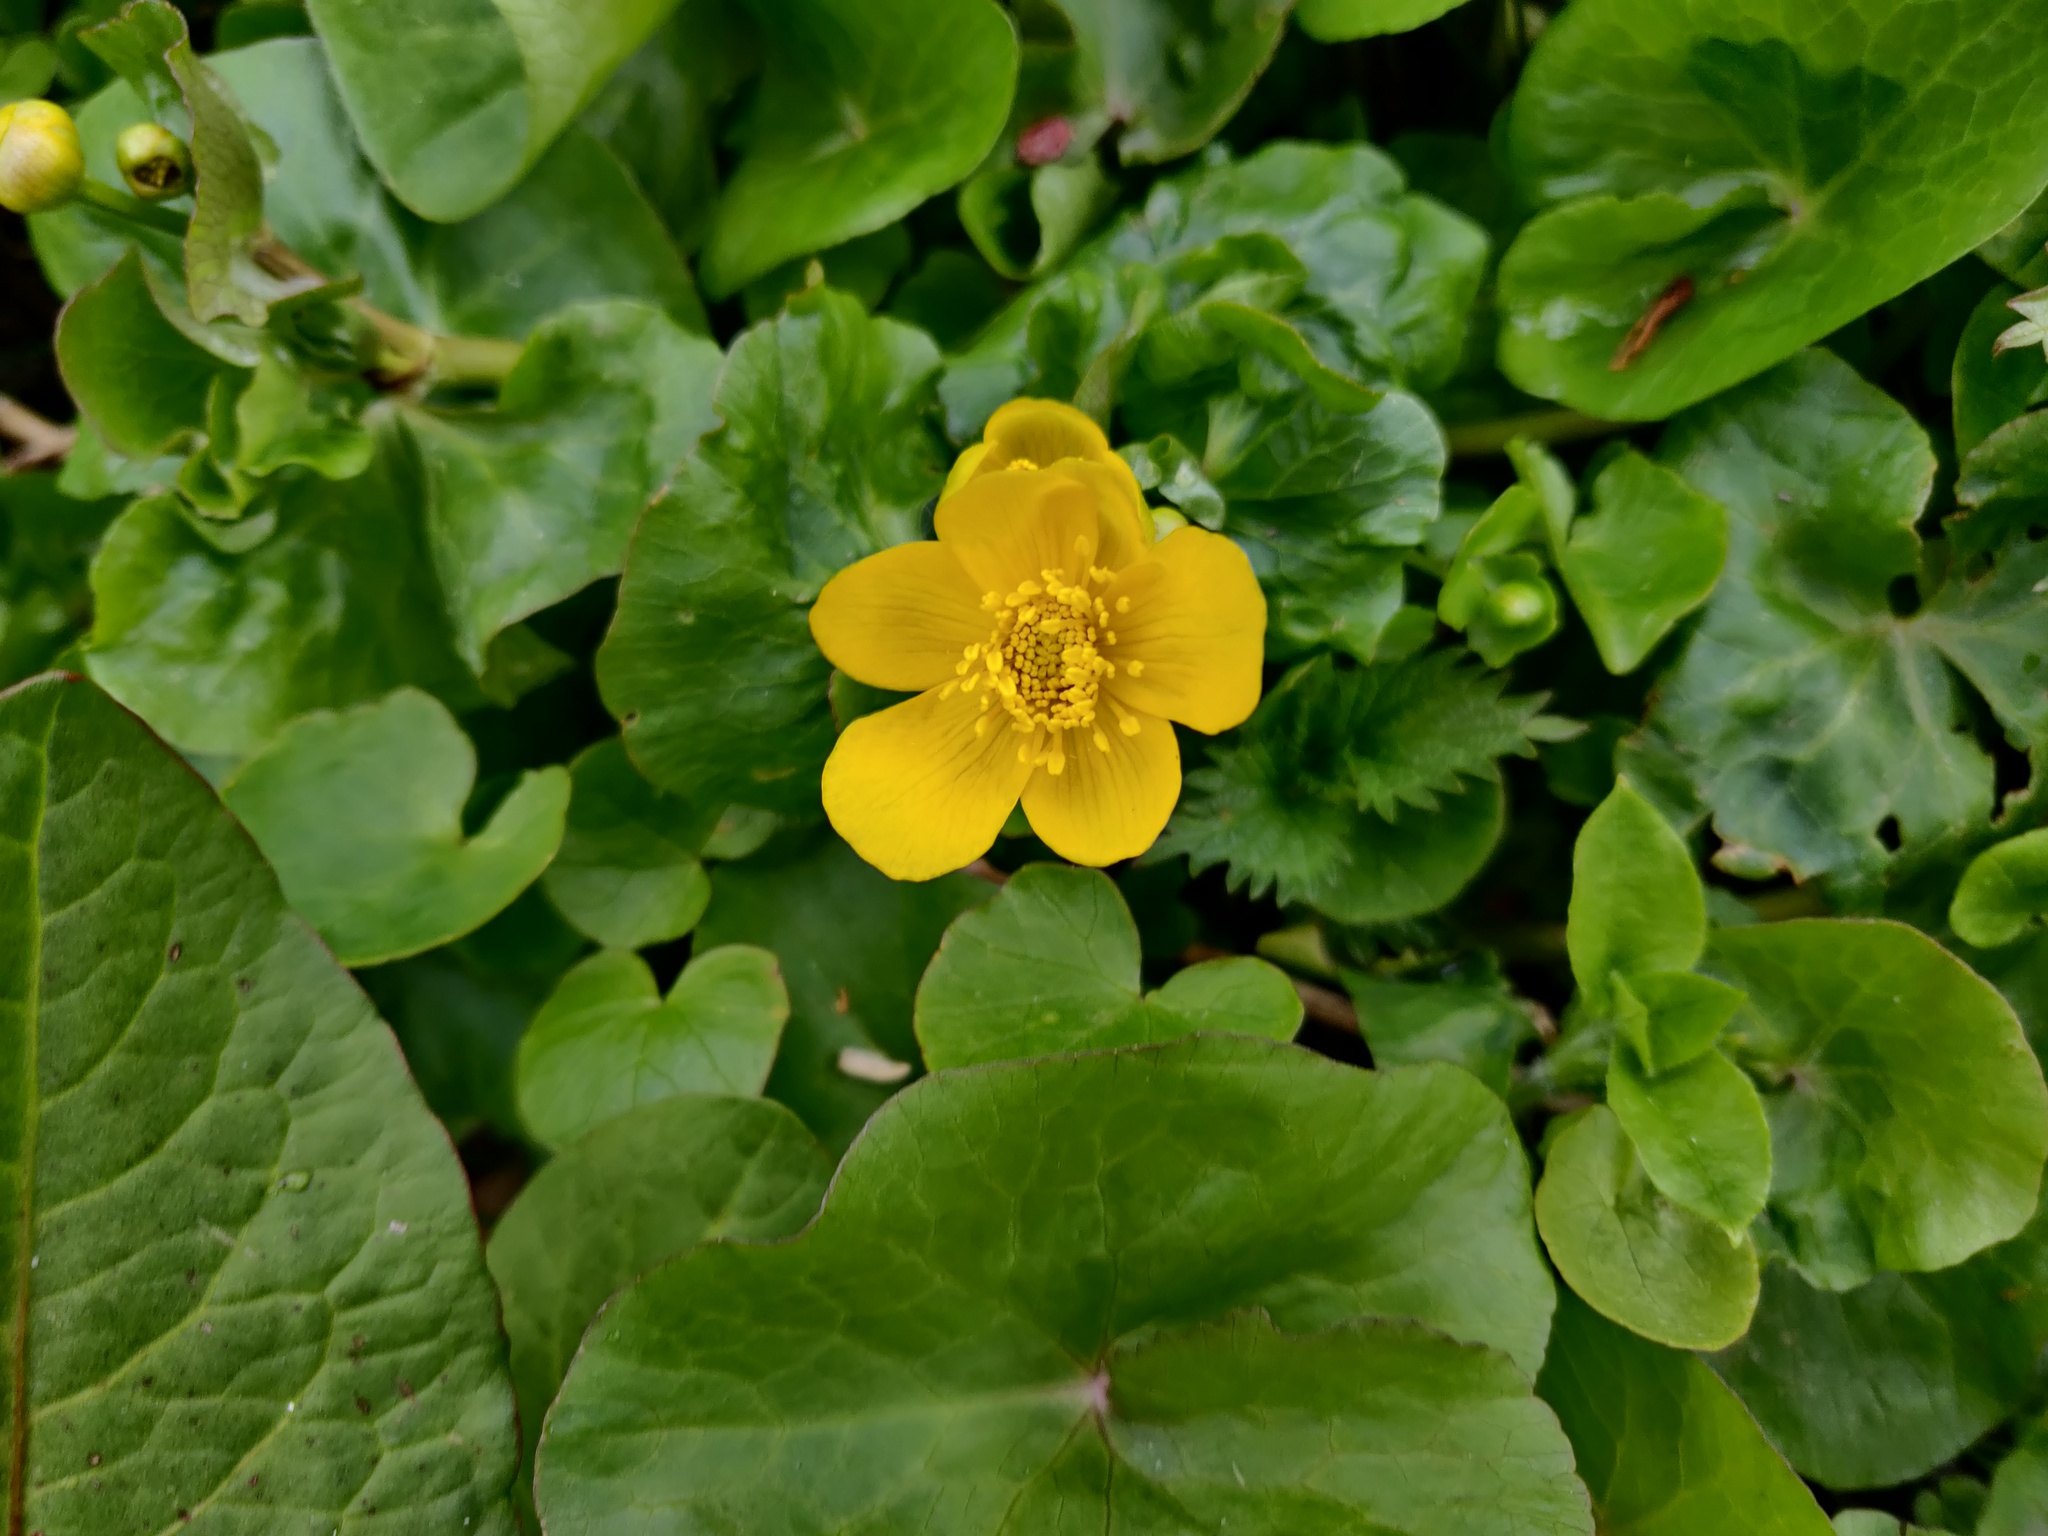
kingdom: Plantae
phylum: Tracheophyta
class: Magnoliopsida
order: Ranunculales
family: Ranunculaceae
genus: Ficaria
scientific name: Ficaria verna
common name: Lesser celandine
